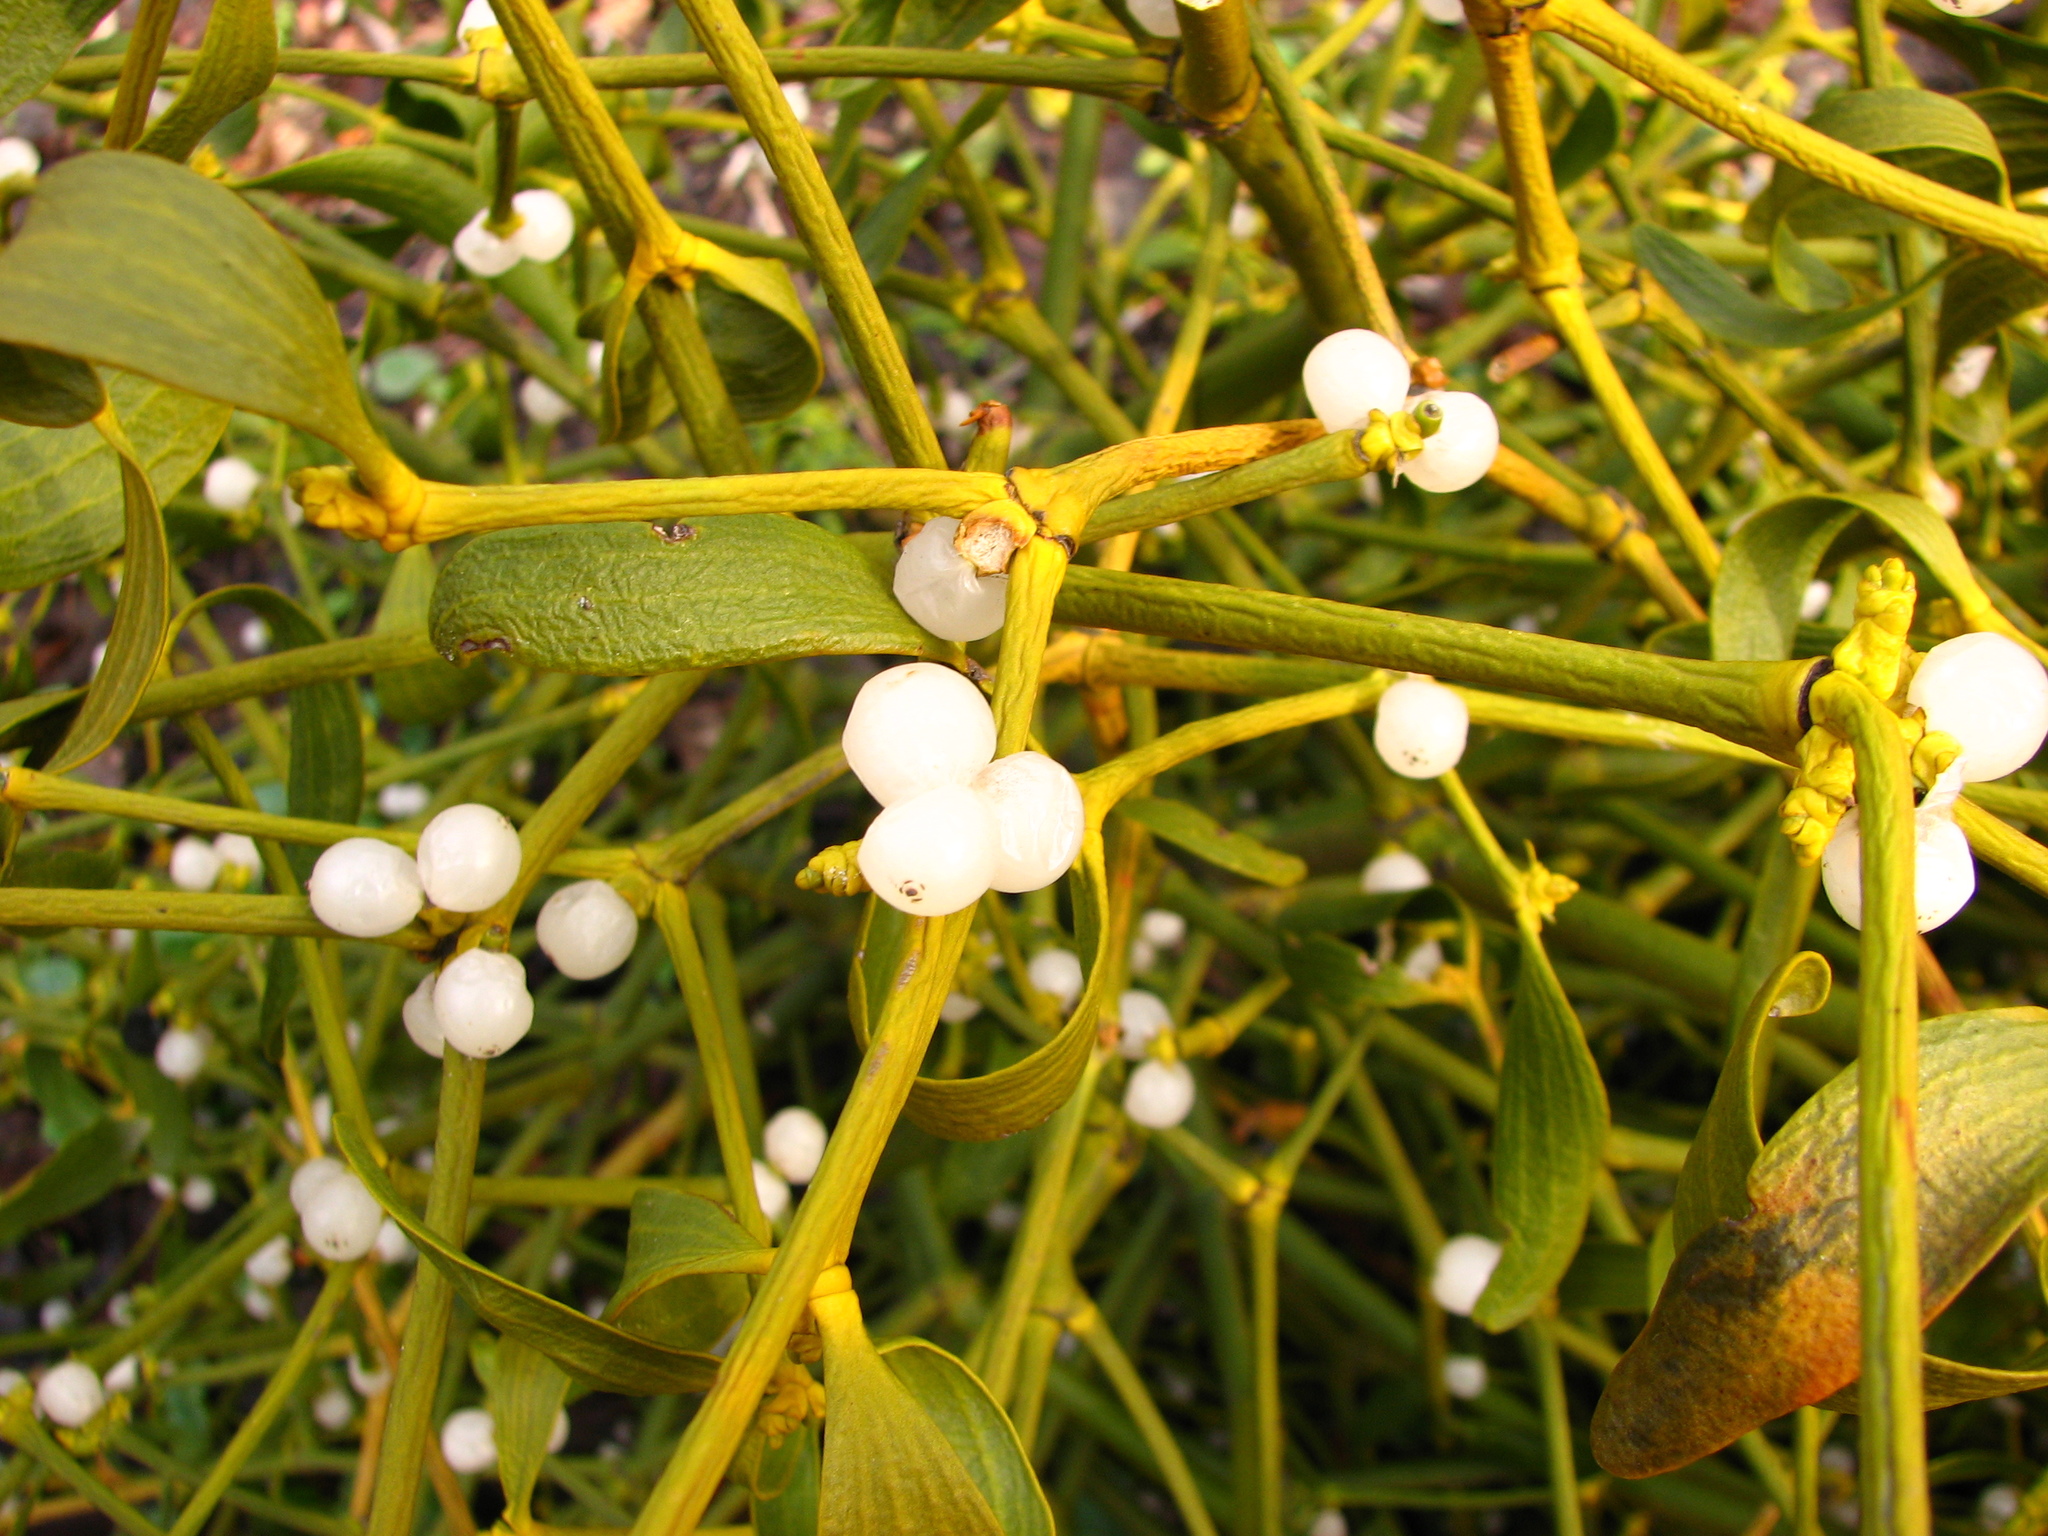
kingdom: Plantae
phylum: Tracheophyta
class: Magnoliopsida
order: Santalales
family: Viscaceae
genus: Viscum
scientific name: Viscum album
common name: Mistletoe
